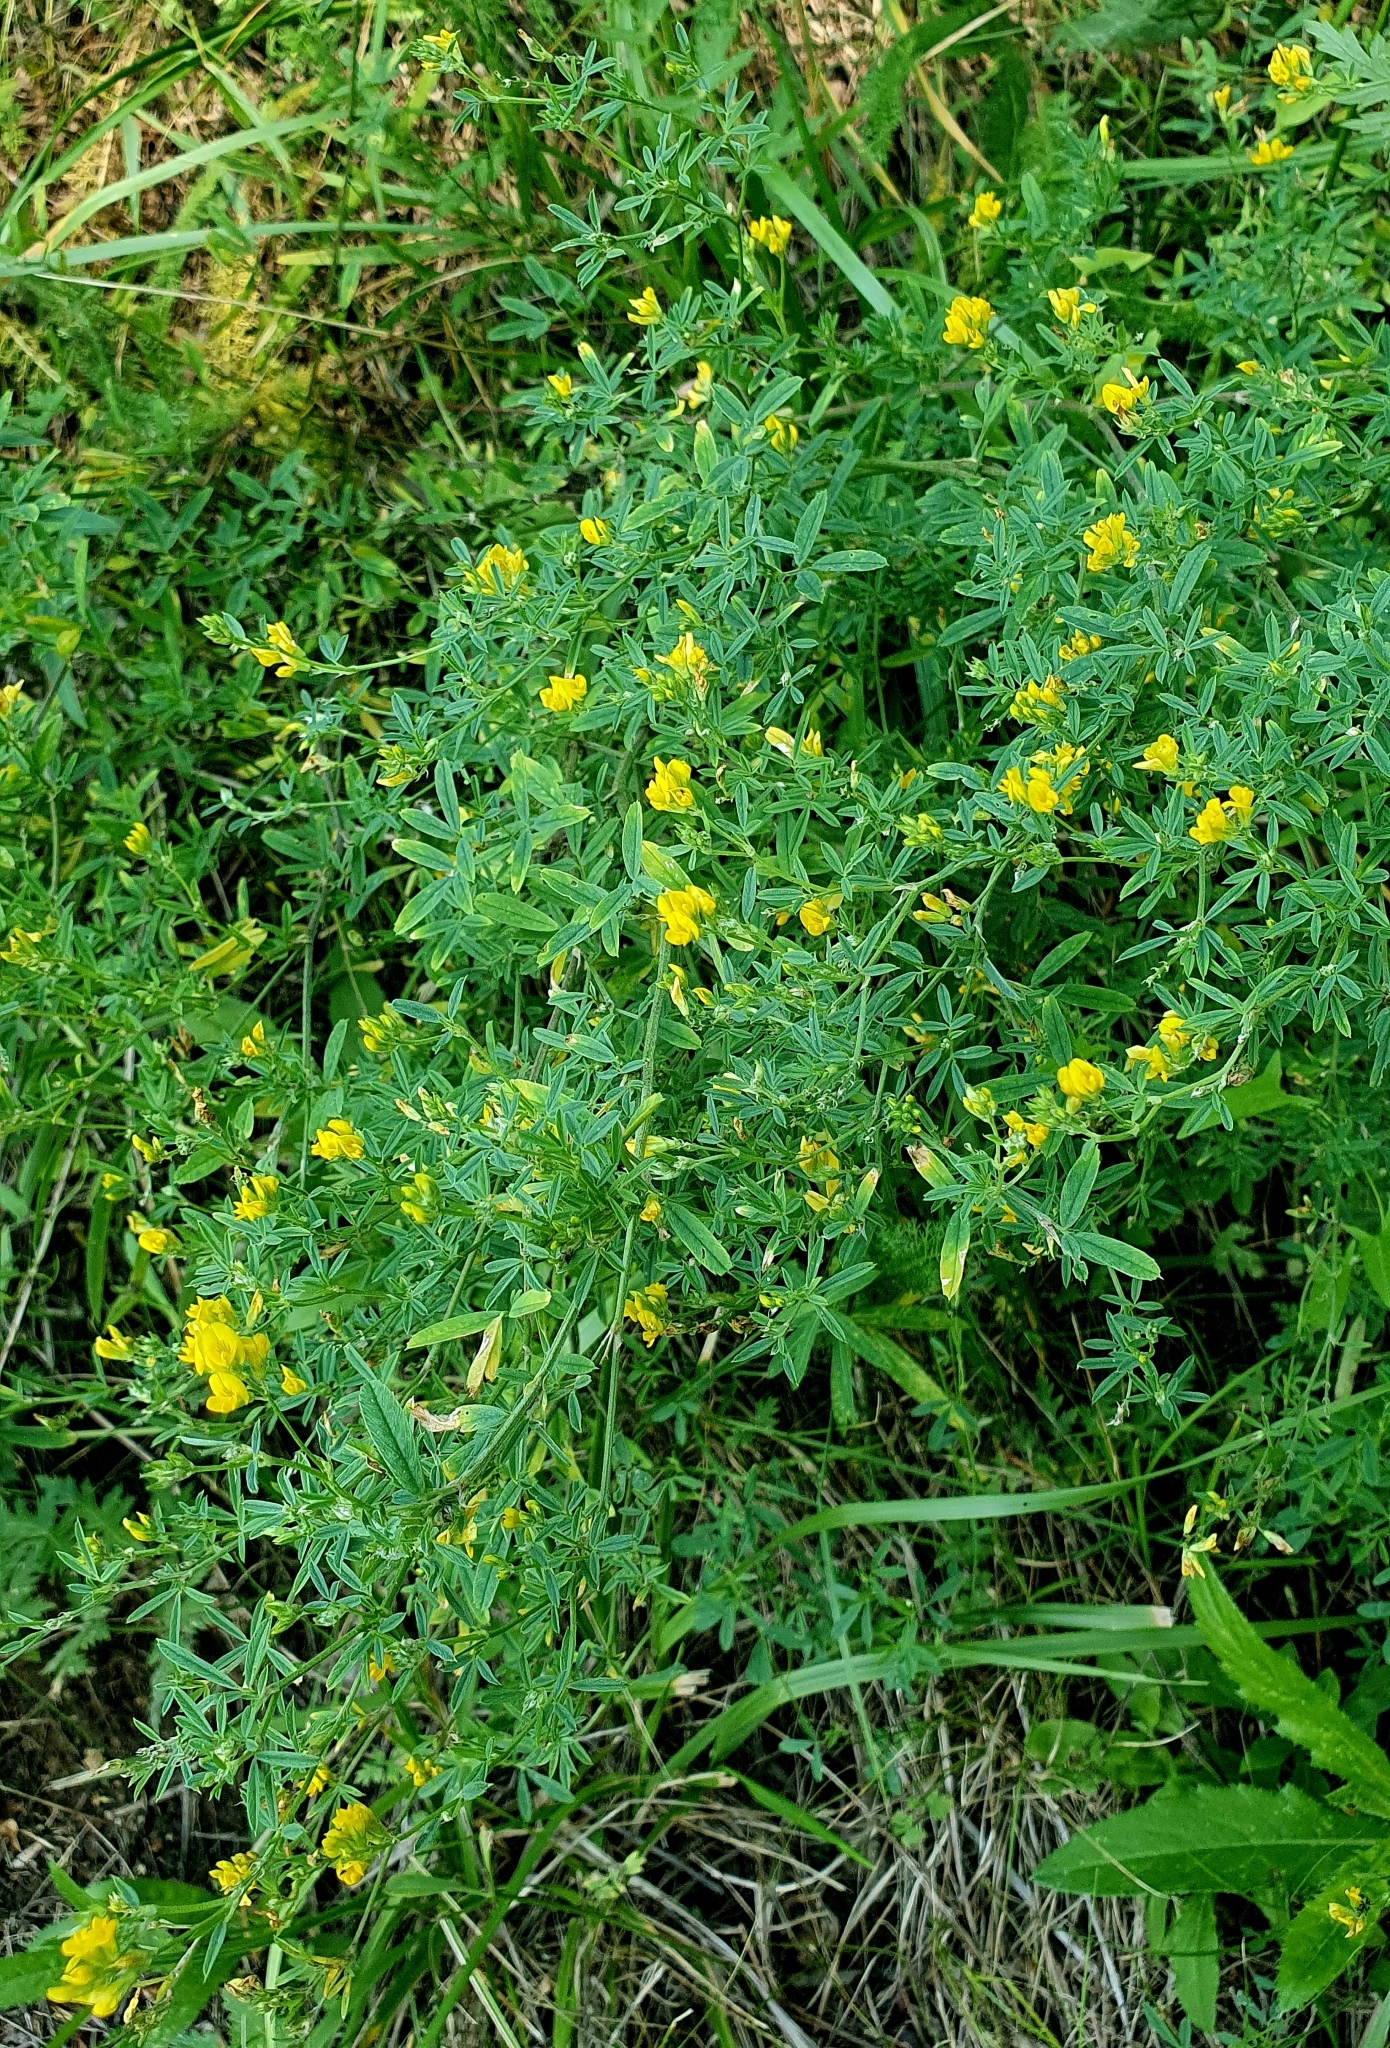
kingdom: Plantae
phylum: Tracheophyta
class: Magnoliopsida
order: Fabales
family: Fabaceae
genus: Medicago
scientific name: Medicago falcata
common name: Sickle medick
